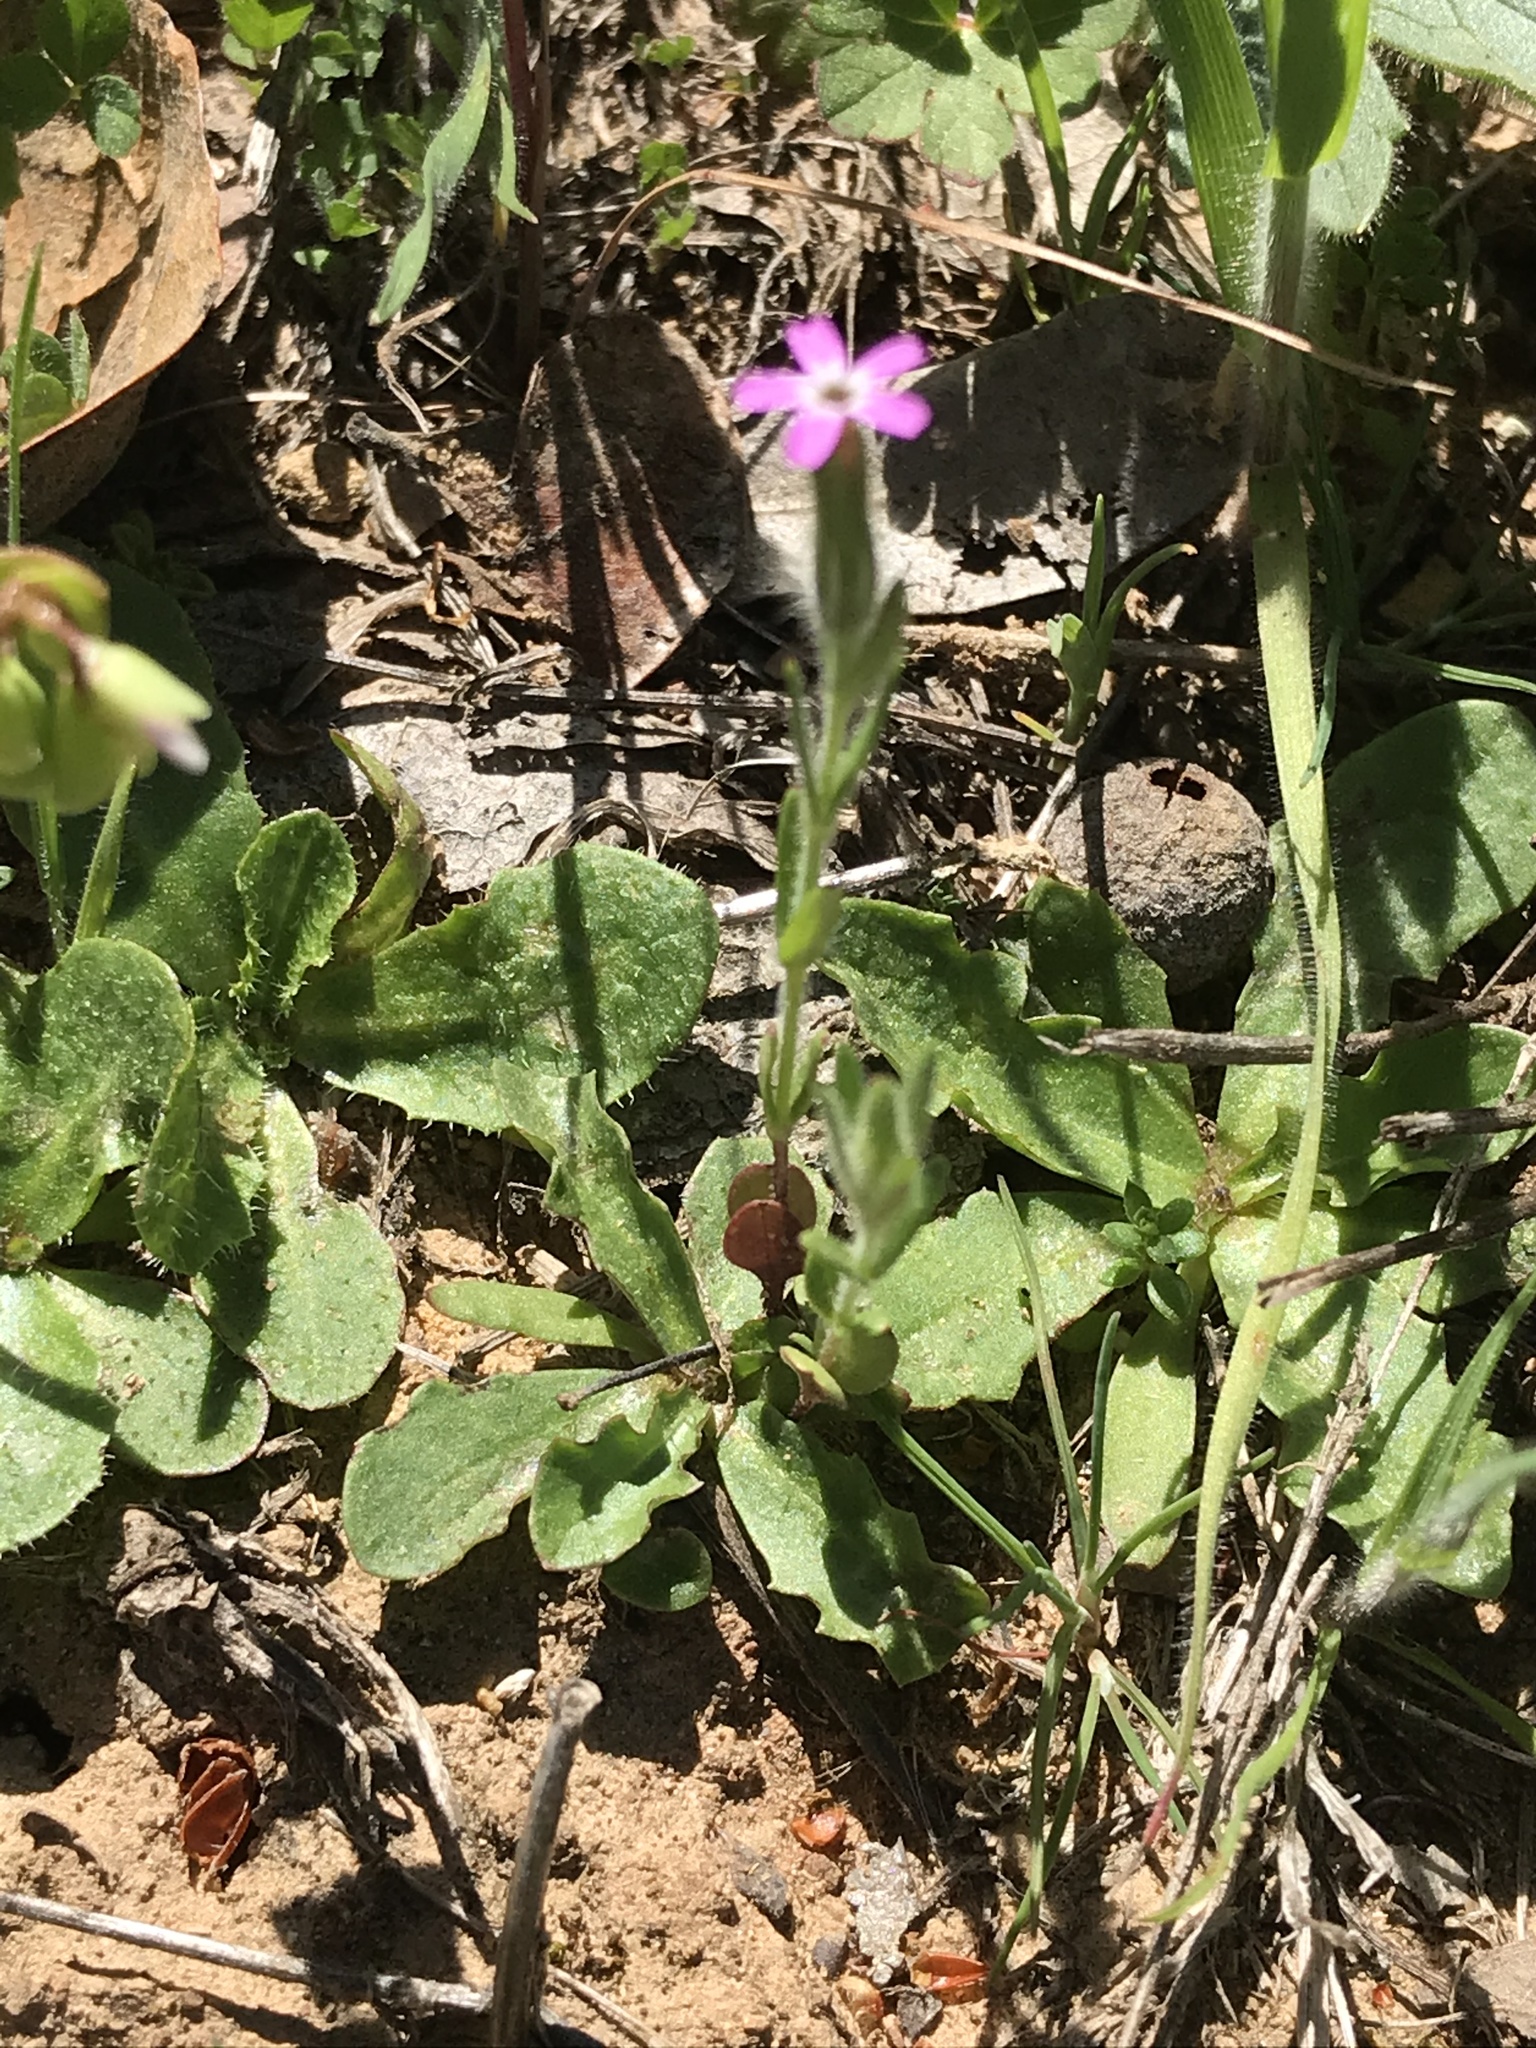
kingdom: Plantae
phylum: Tracheophyta
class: Magnoliopsida
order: Ericales
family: Polemoniaceae
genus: Phlox
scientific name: Phlox gracilis
